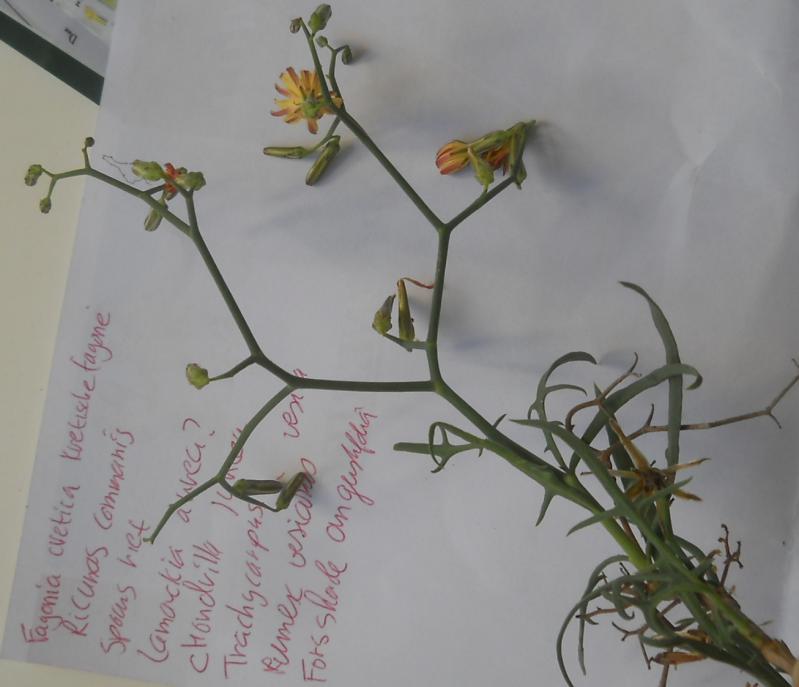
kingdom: Plantae
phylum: Tracheophyta
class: Magnoliopsida
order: Asterales
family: Asteraceae
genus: Launaea
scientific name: Launaea arborescens
